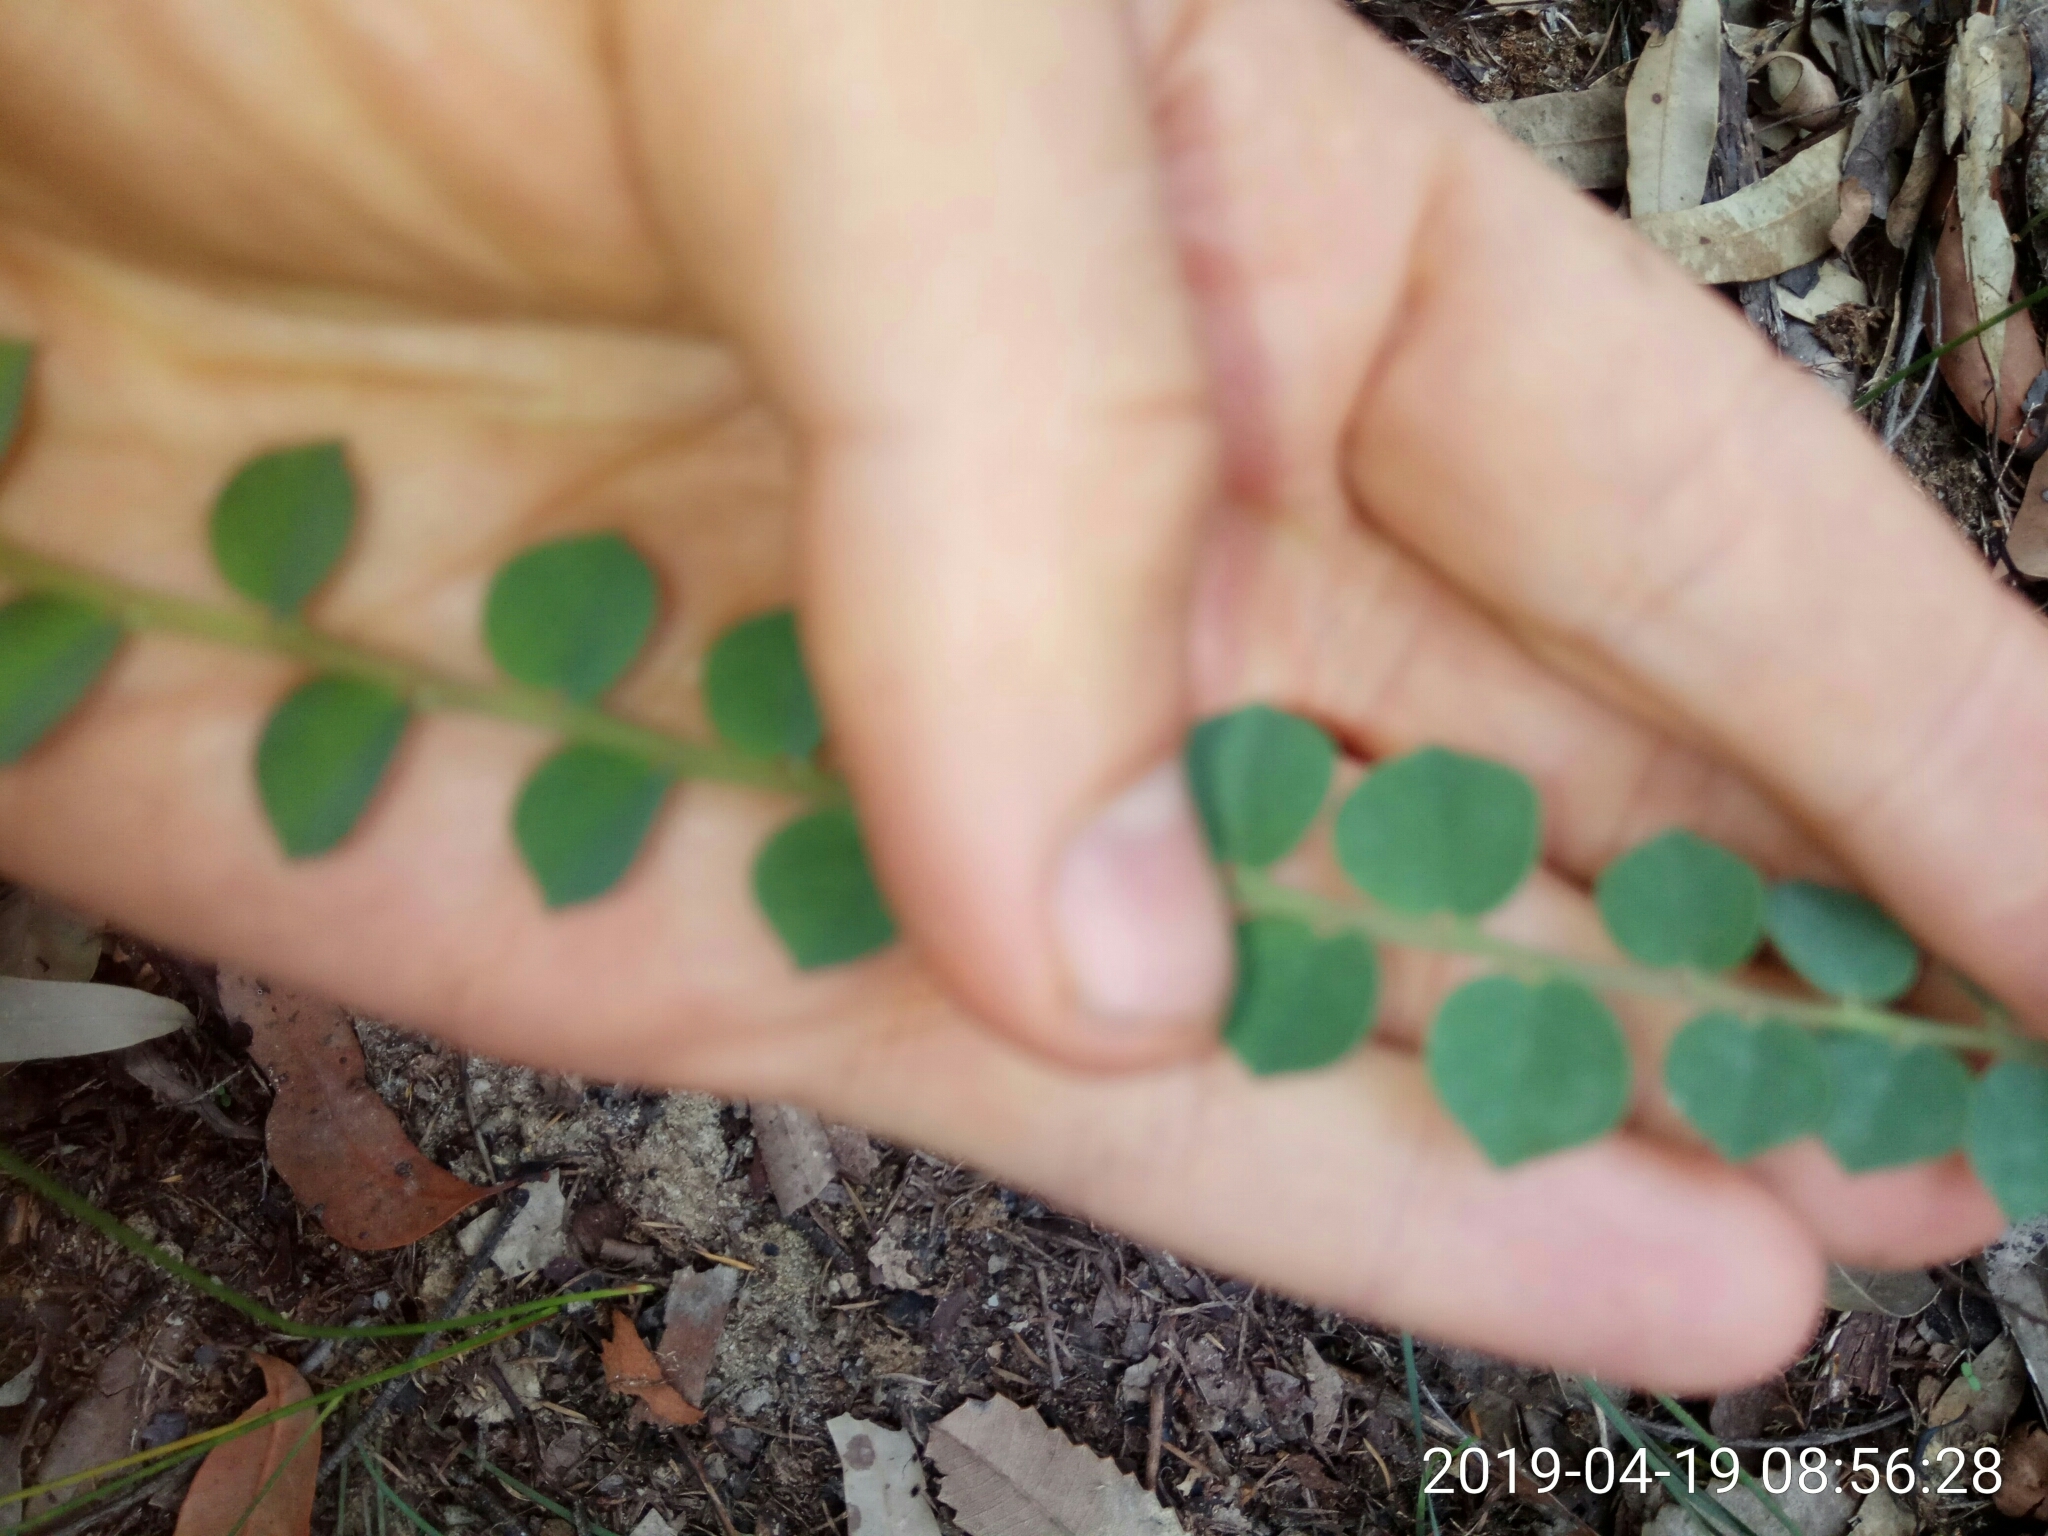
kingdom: Plantae
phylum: Tracheophyta
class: Magnoliopsida
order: Fabales
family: Fabaceae
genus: Bossiaea
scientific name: Bossiaea rhombifolia
